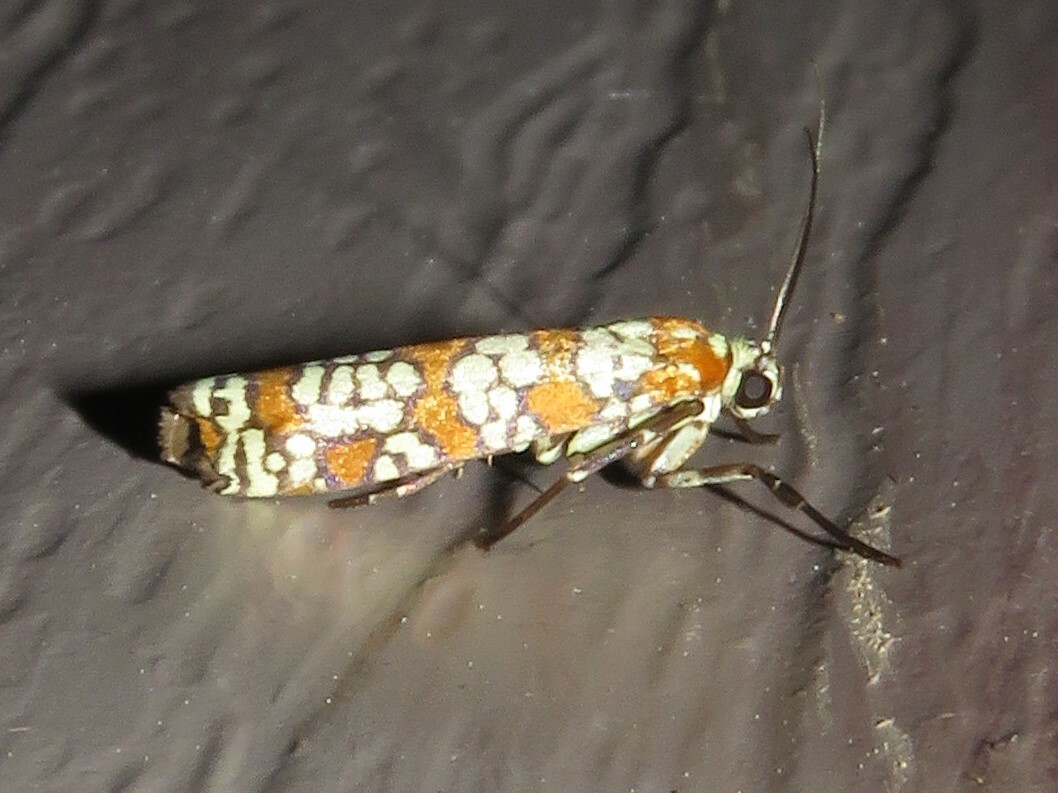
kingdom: Animalia
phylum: Arthropoda
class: Insecta
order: Lepidoptera
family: Attevidae
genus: Atteva
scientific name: Atteva punctella
